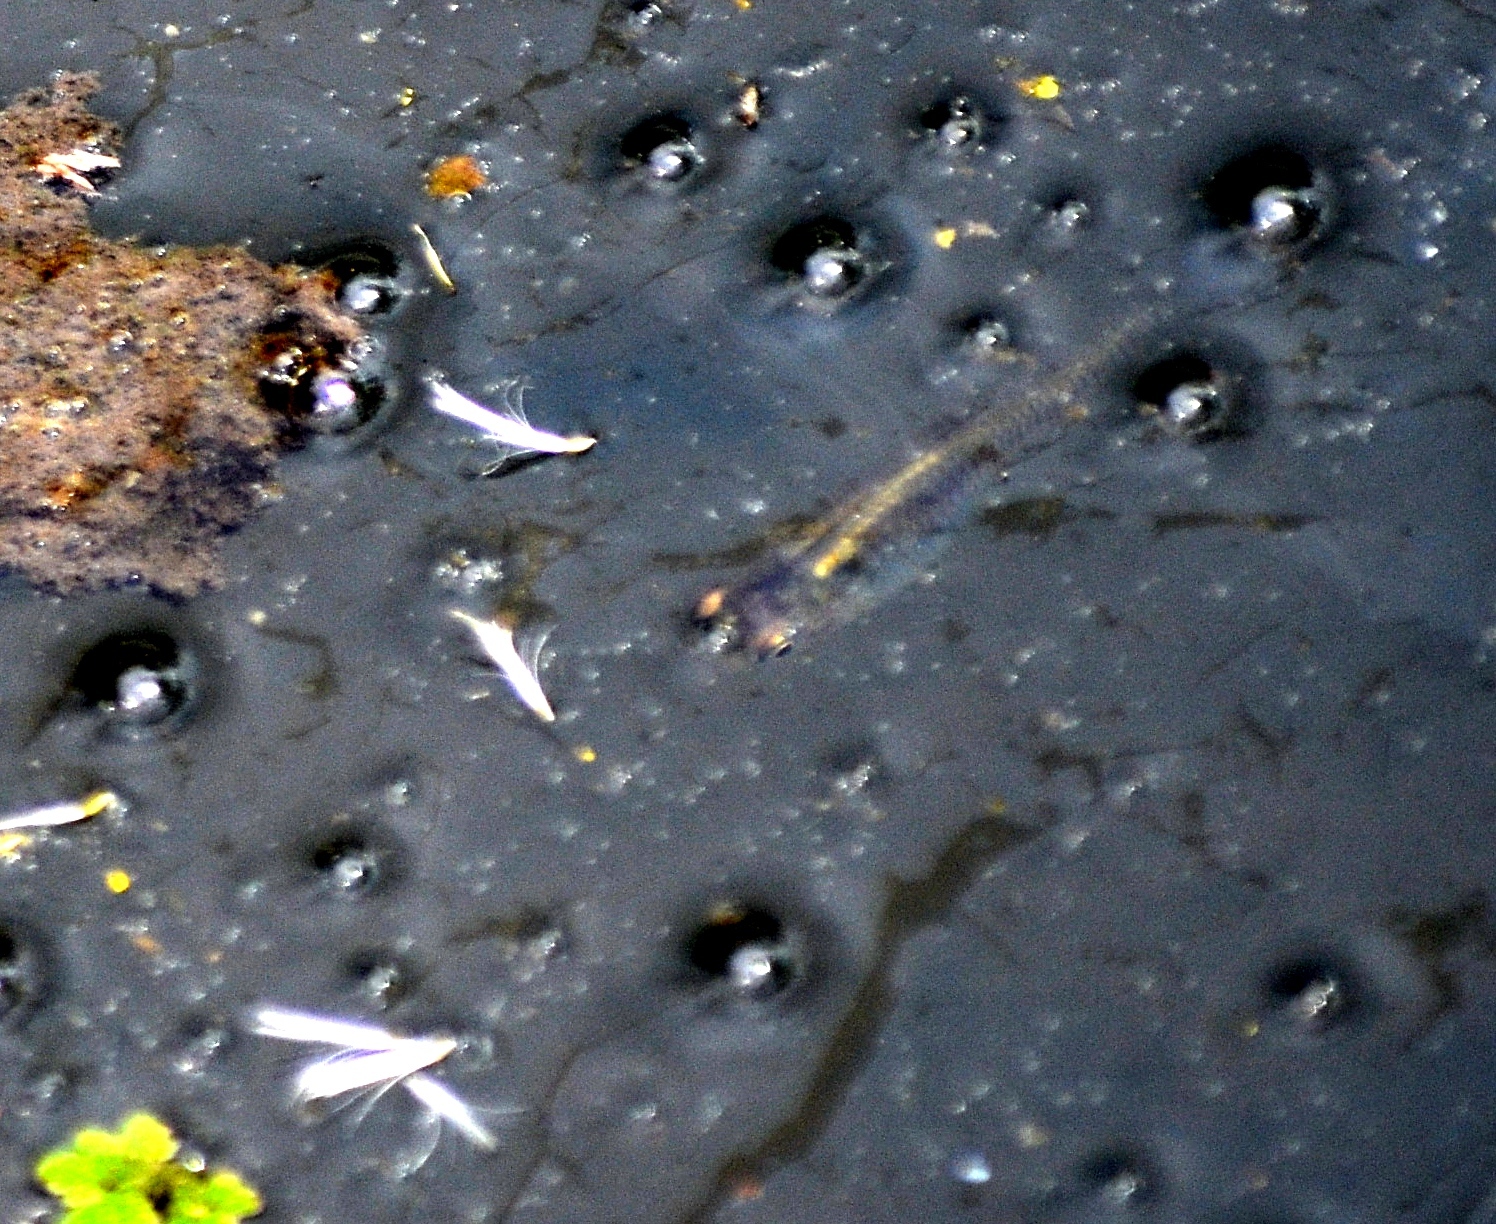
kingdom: Animalia
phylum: Chordata
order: Cyprinodontiformes
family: Poeciliidae
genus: Gambusia
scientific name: Gambusia affinis
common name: Mosquitofish
